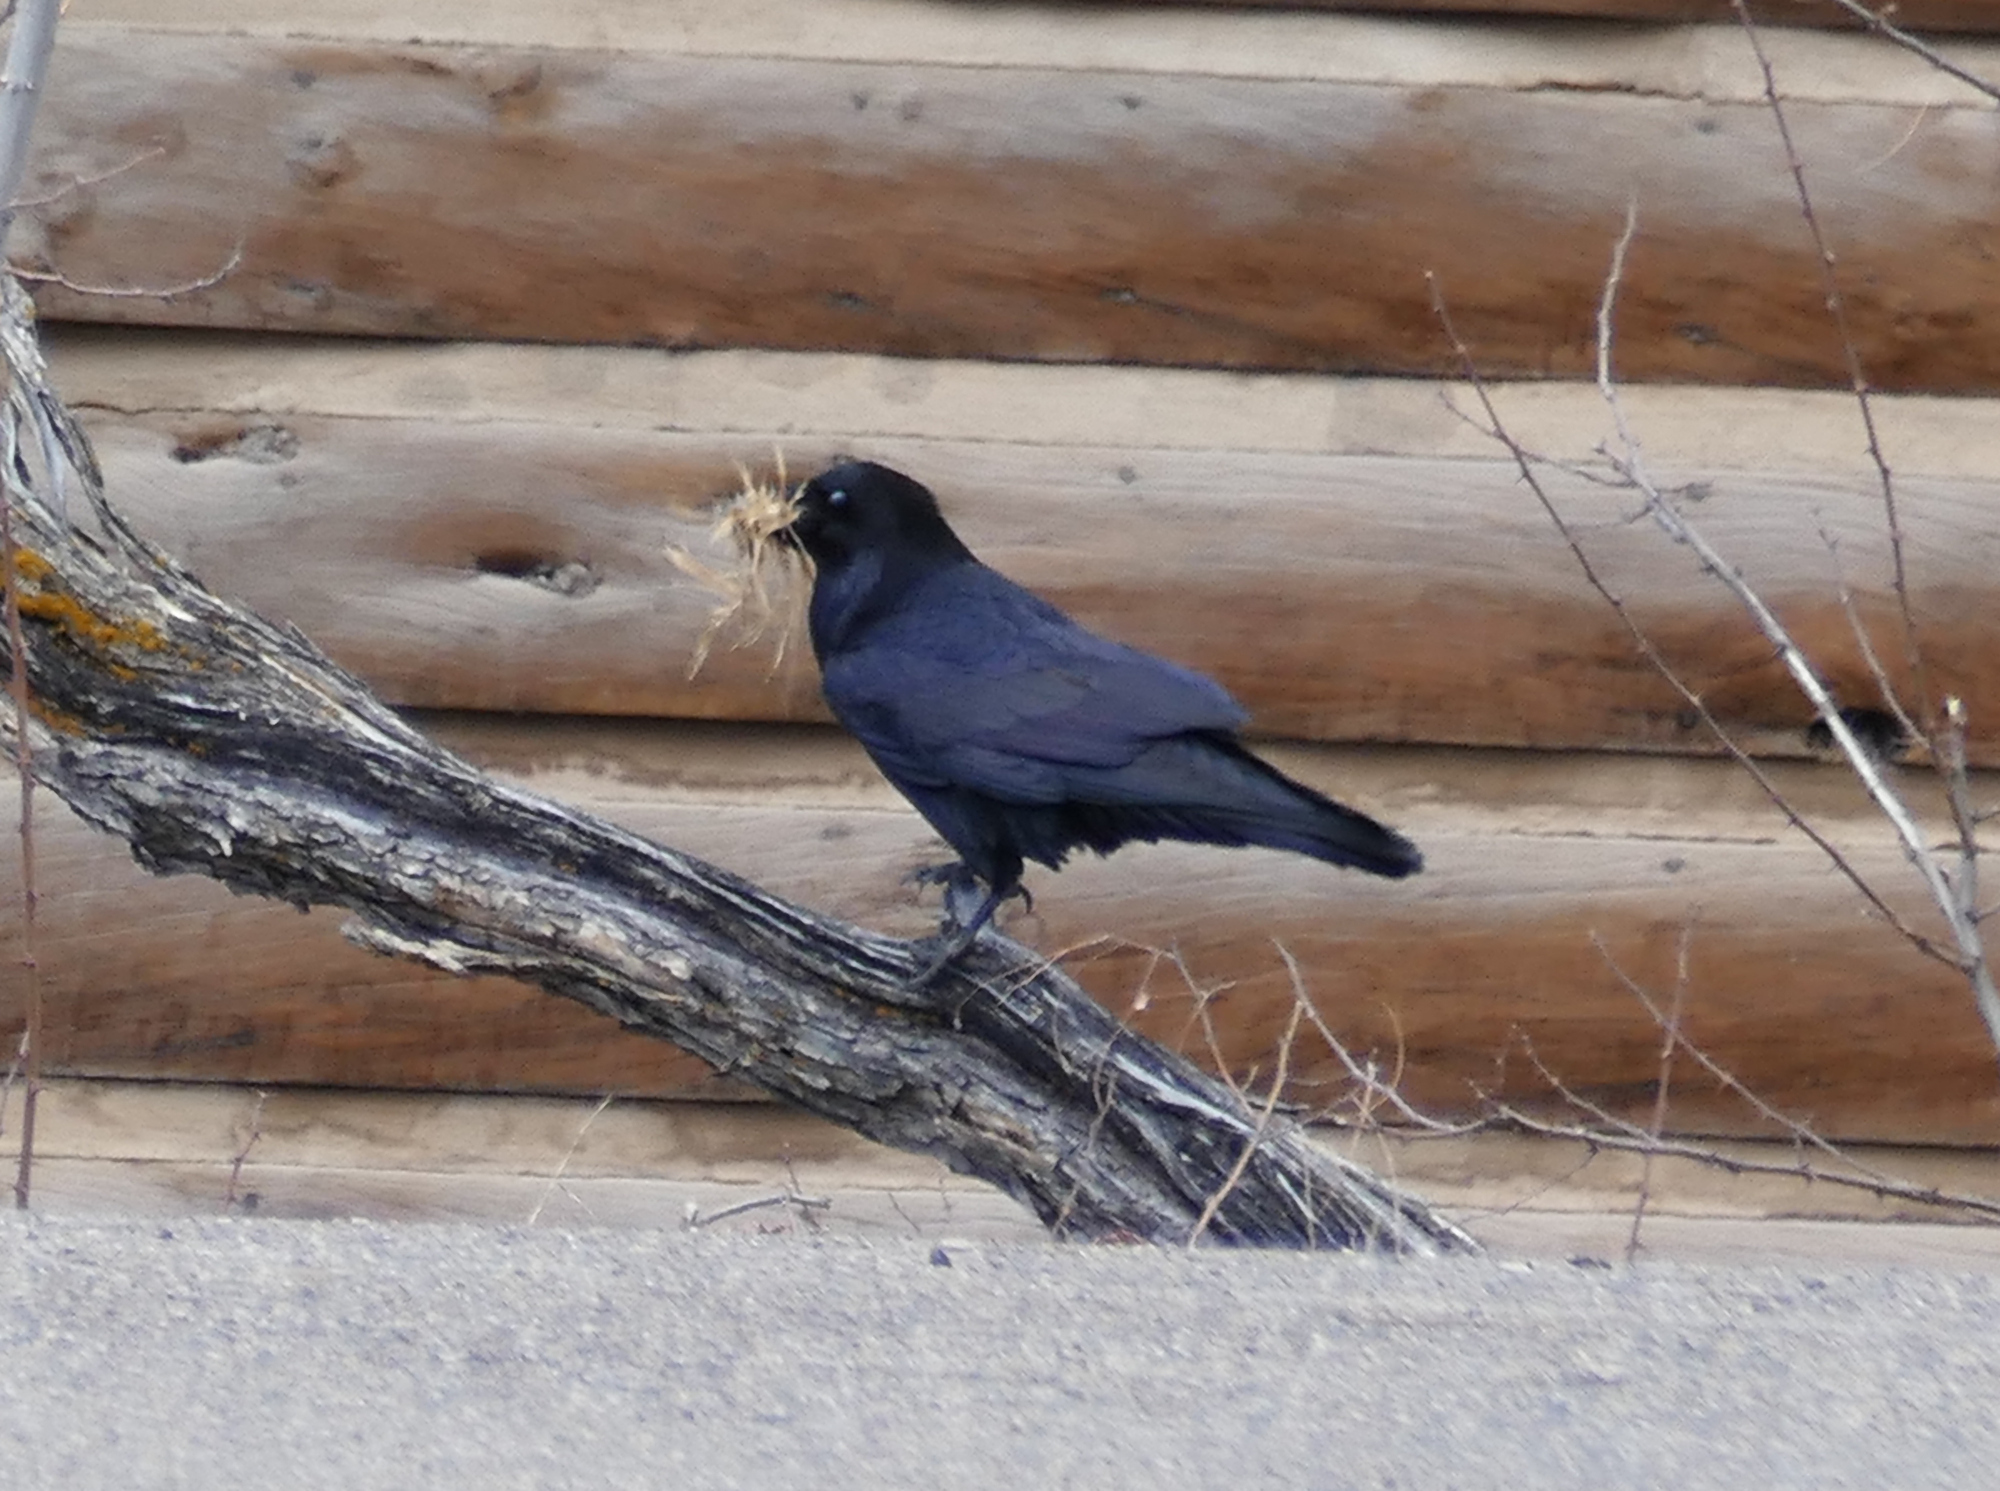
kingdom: Animalia
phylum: Chordata
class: Aves
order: Passeriformes
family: Corvidae
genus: Corvus
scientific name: Corvus corax
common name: Common raven
